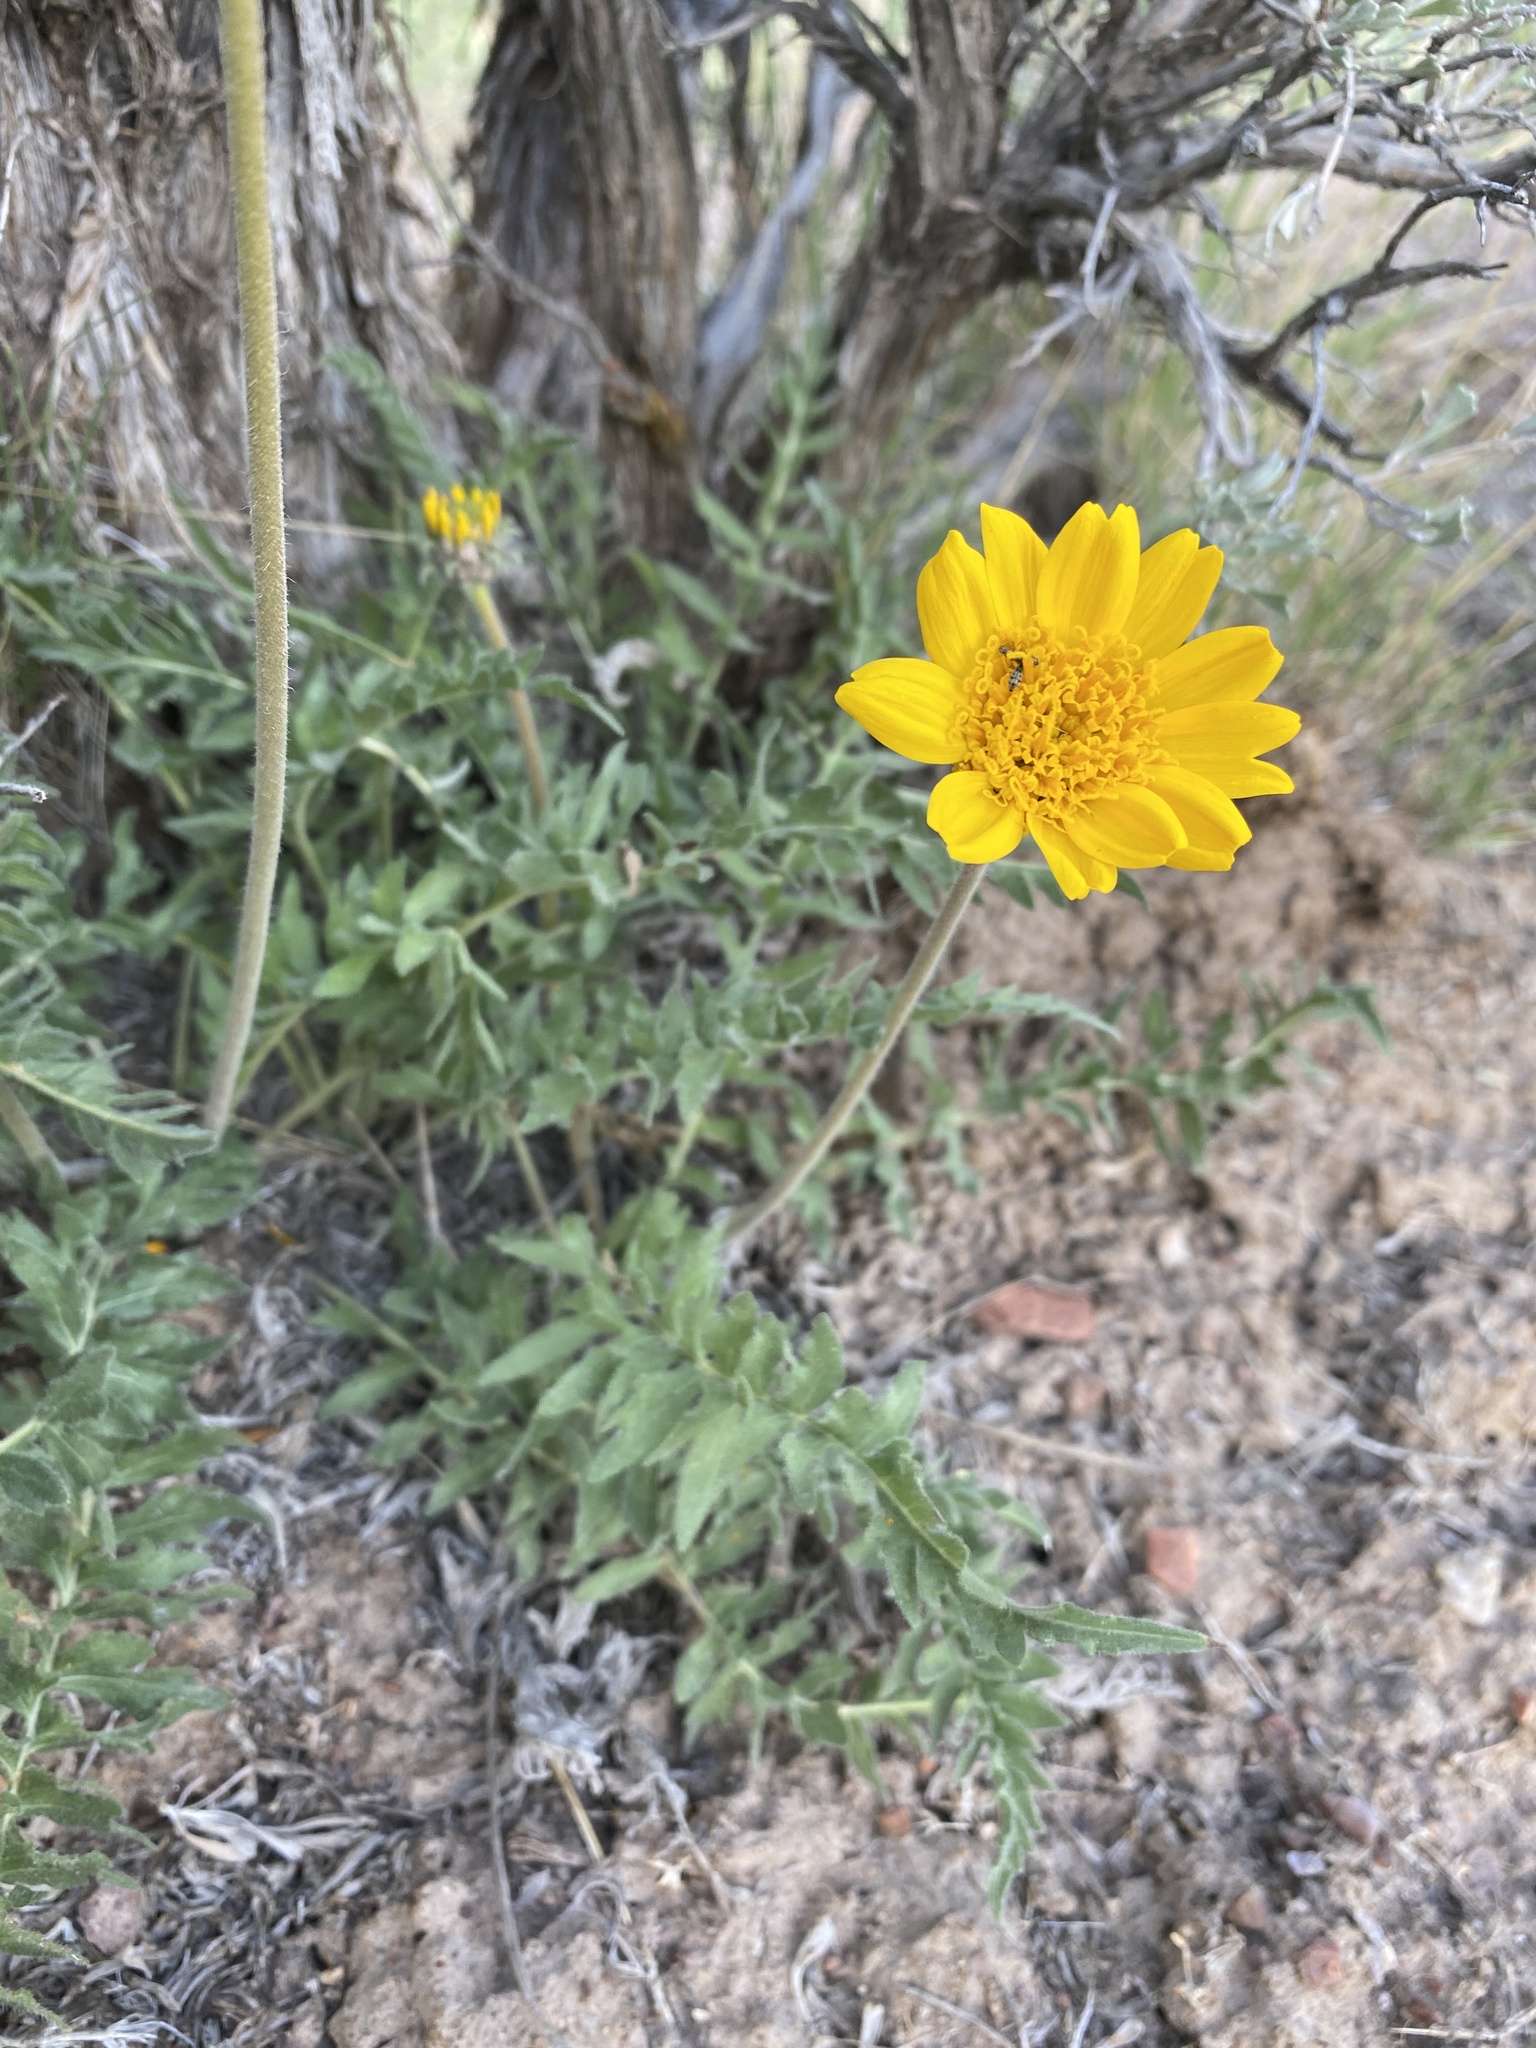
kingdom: Plantae
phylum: Tracheophyta
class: Magnoliopsida
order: Asterales
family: Asteraceae
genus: Balsamorhiza
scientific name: Balsamorhiza hookeri
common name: Hooker's balsamroot
